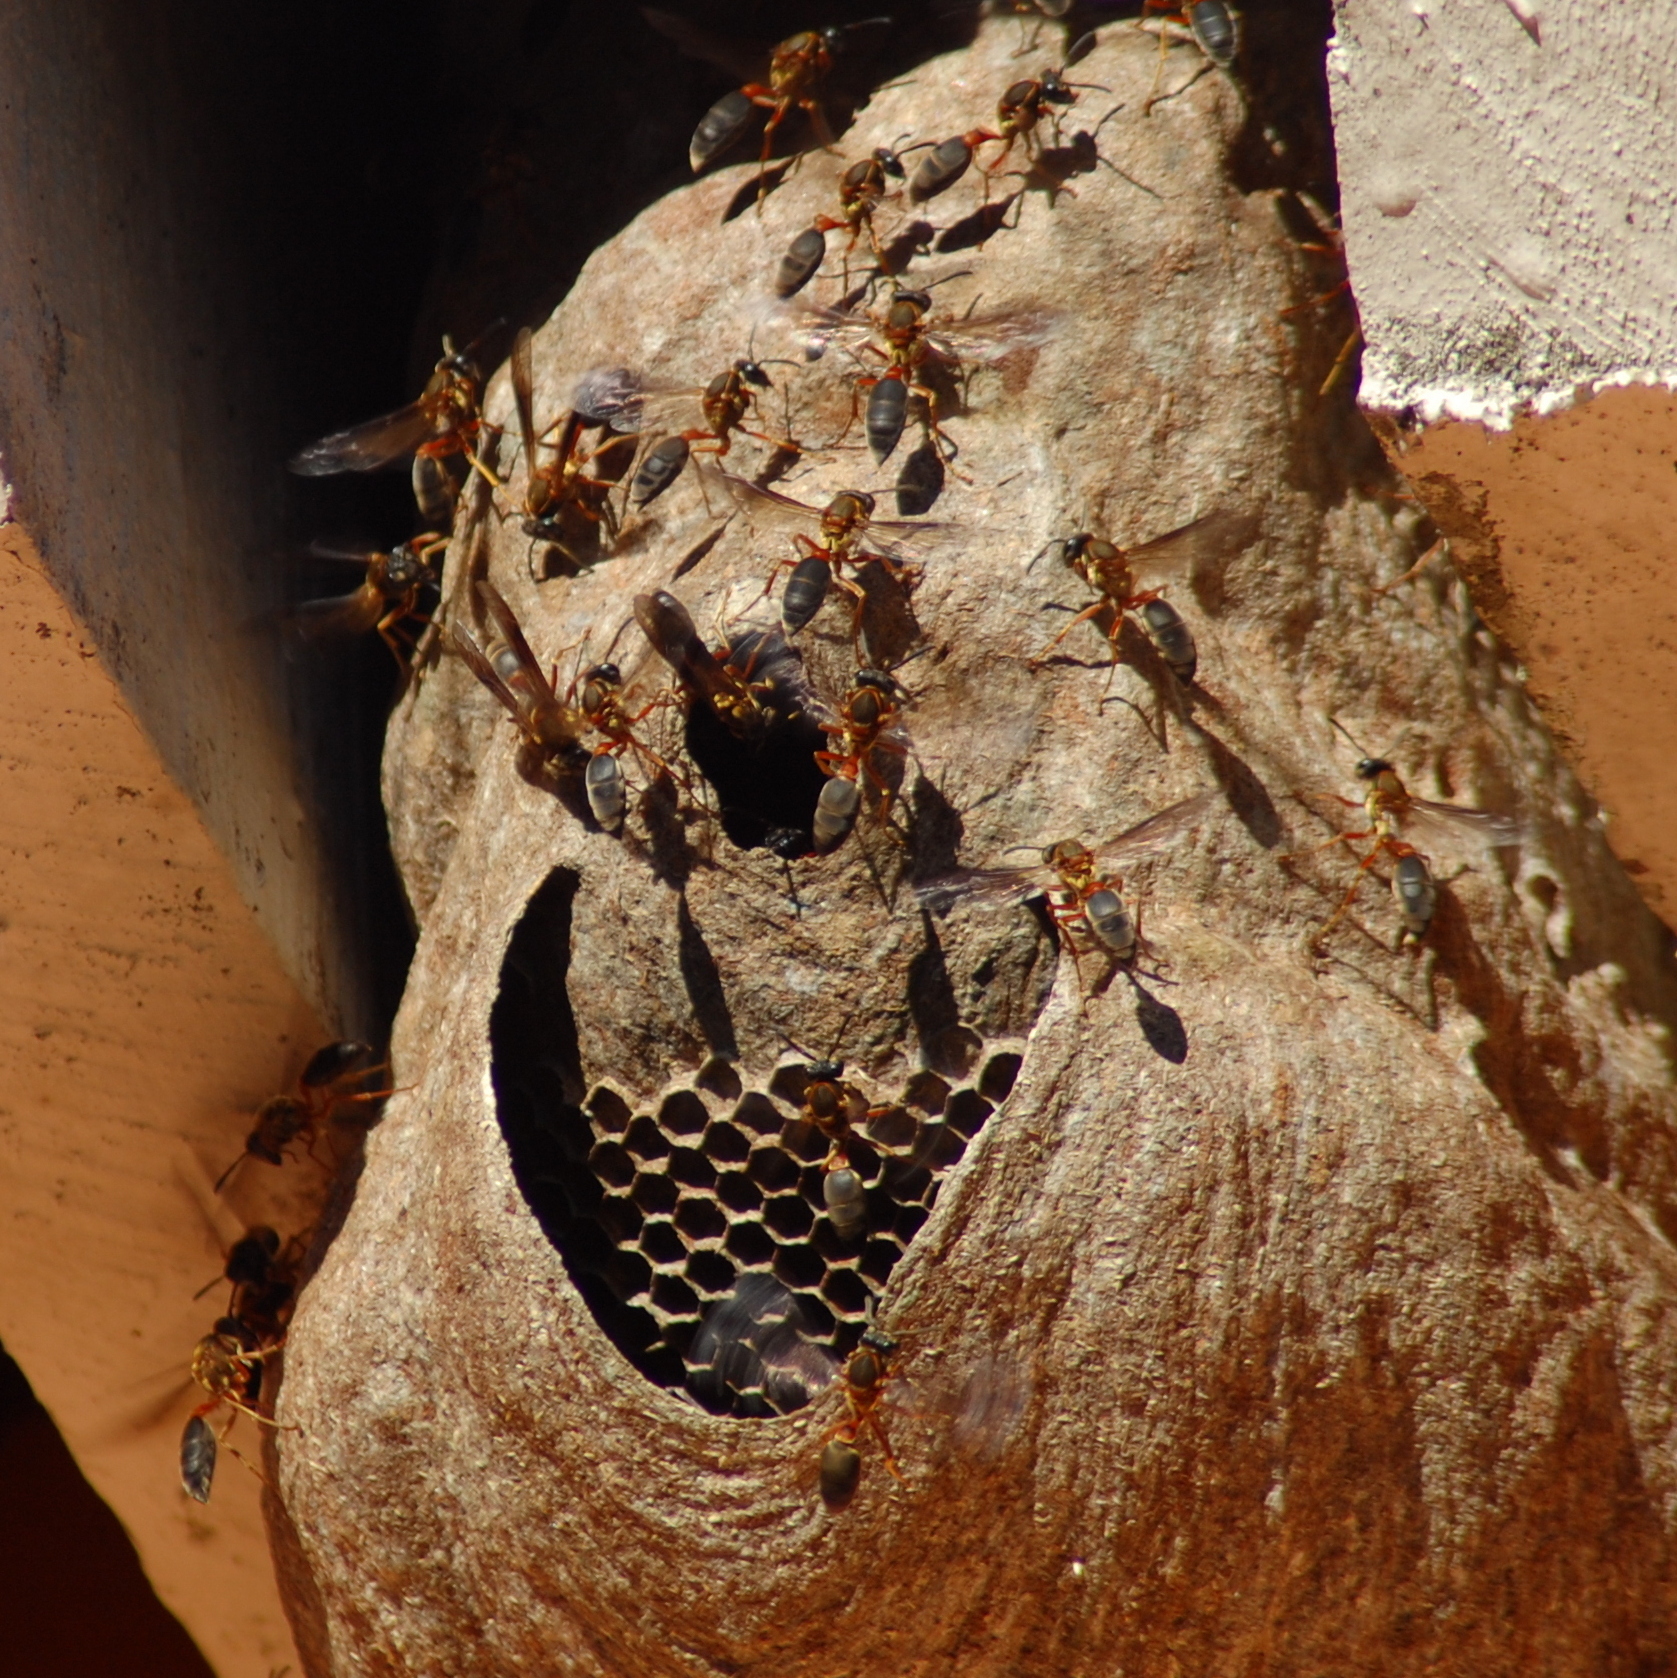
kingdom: Animalia
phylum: Arthropoda
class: Insecta
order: Hymenoptera
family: Eumenidae
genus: Polybia
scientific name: Polybia sericea
